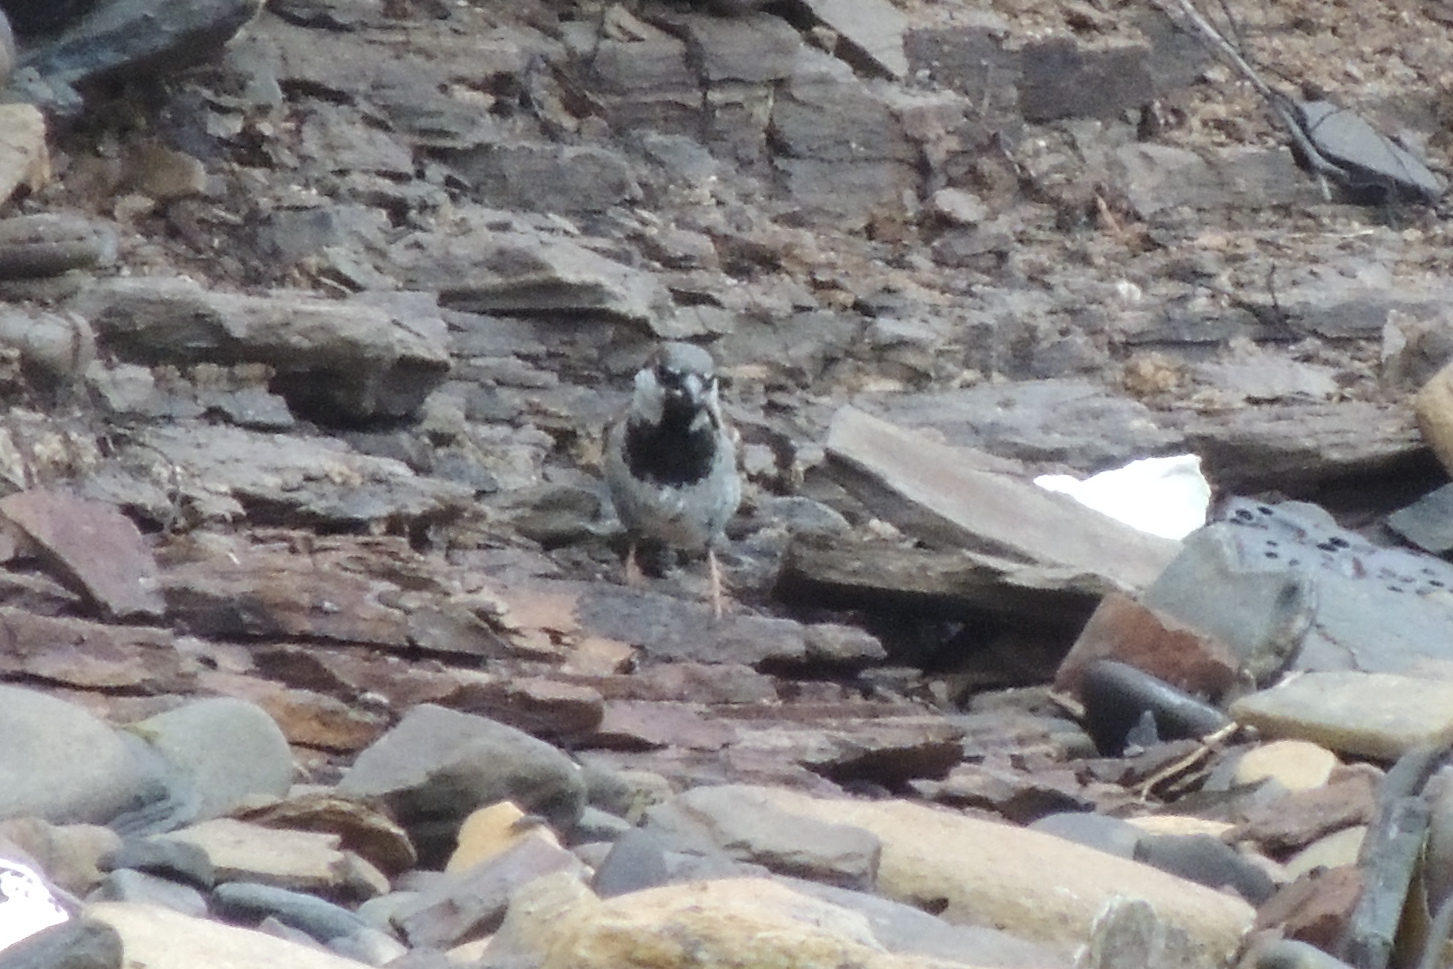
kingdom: Animalia
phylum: Chordata
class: Aves
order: Passeriformes
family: Passeridae
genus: Passer
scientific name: Passer domesticus
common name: House sparrow
